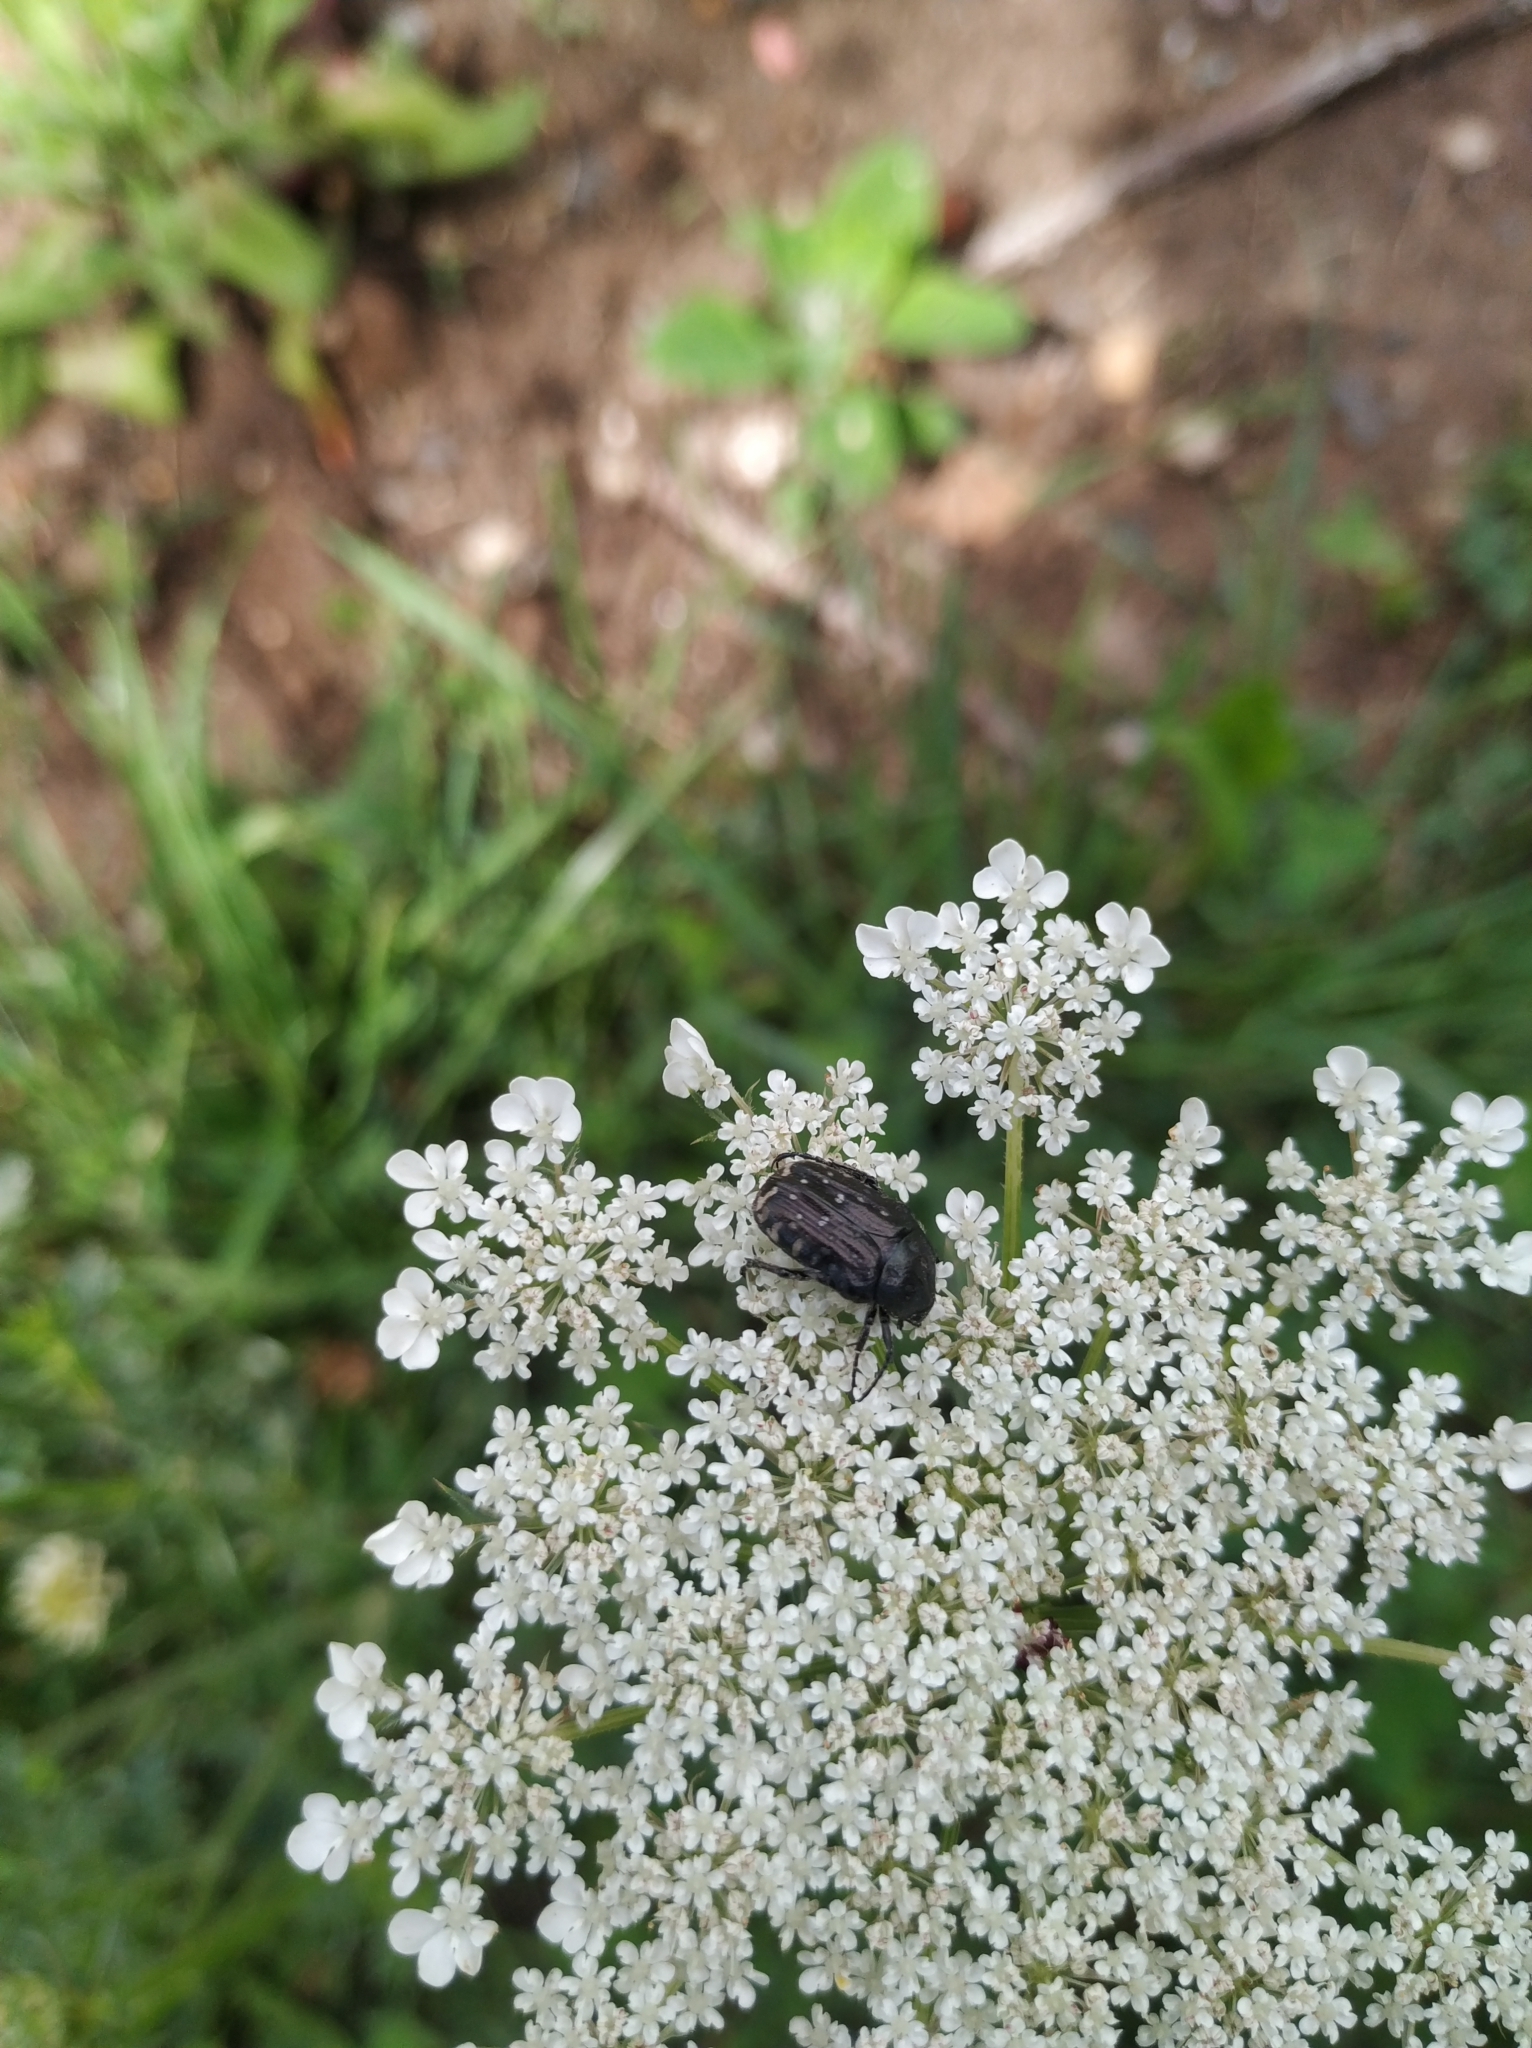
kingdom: Animalia
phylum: Arthropoda
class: Insecta
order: Coleoptera
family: Scarabaeidae
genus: Oxythyrea
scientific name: Oxythyrea funesta
